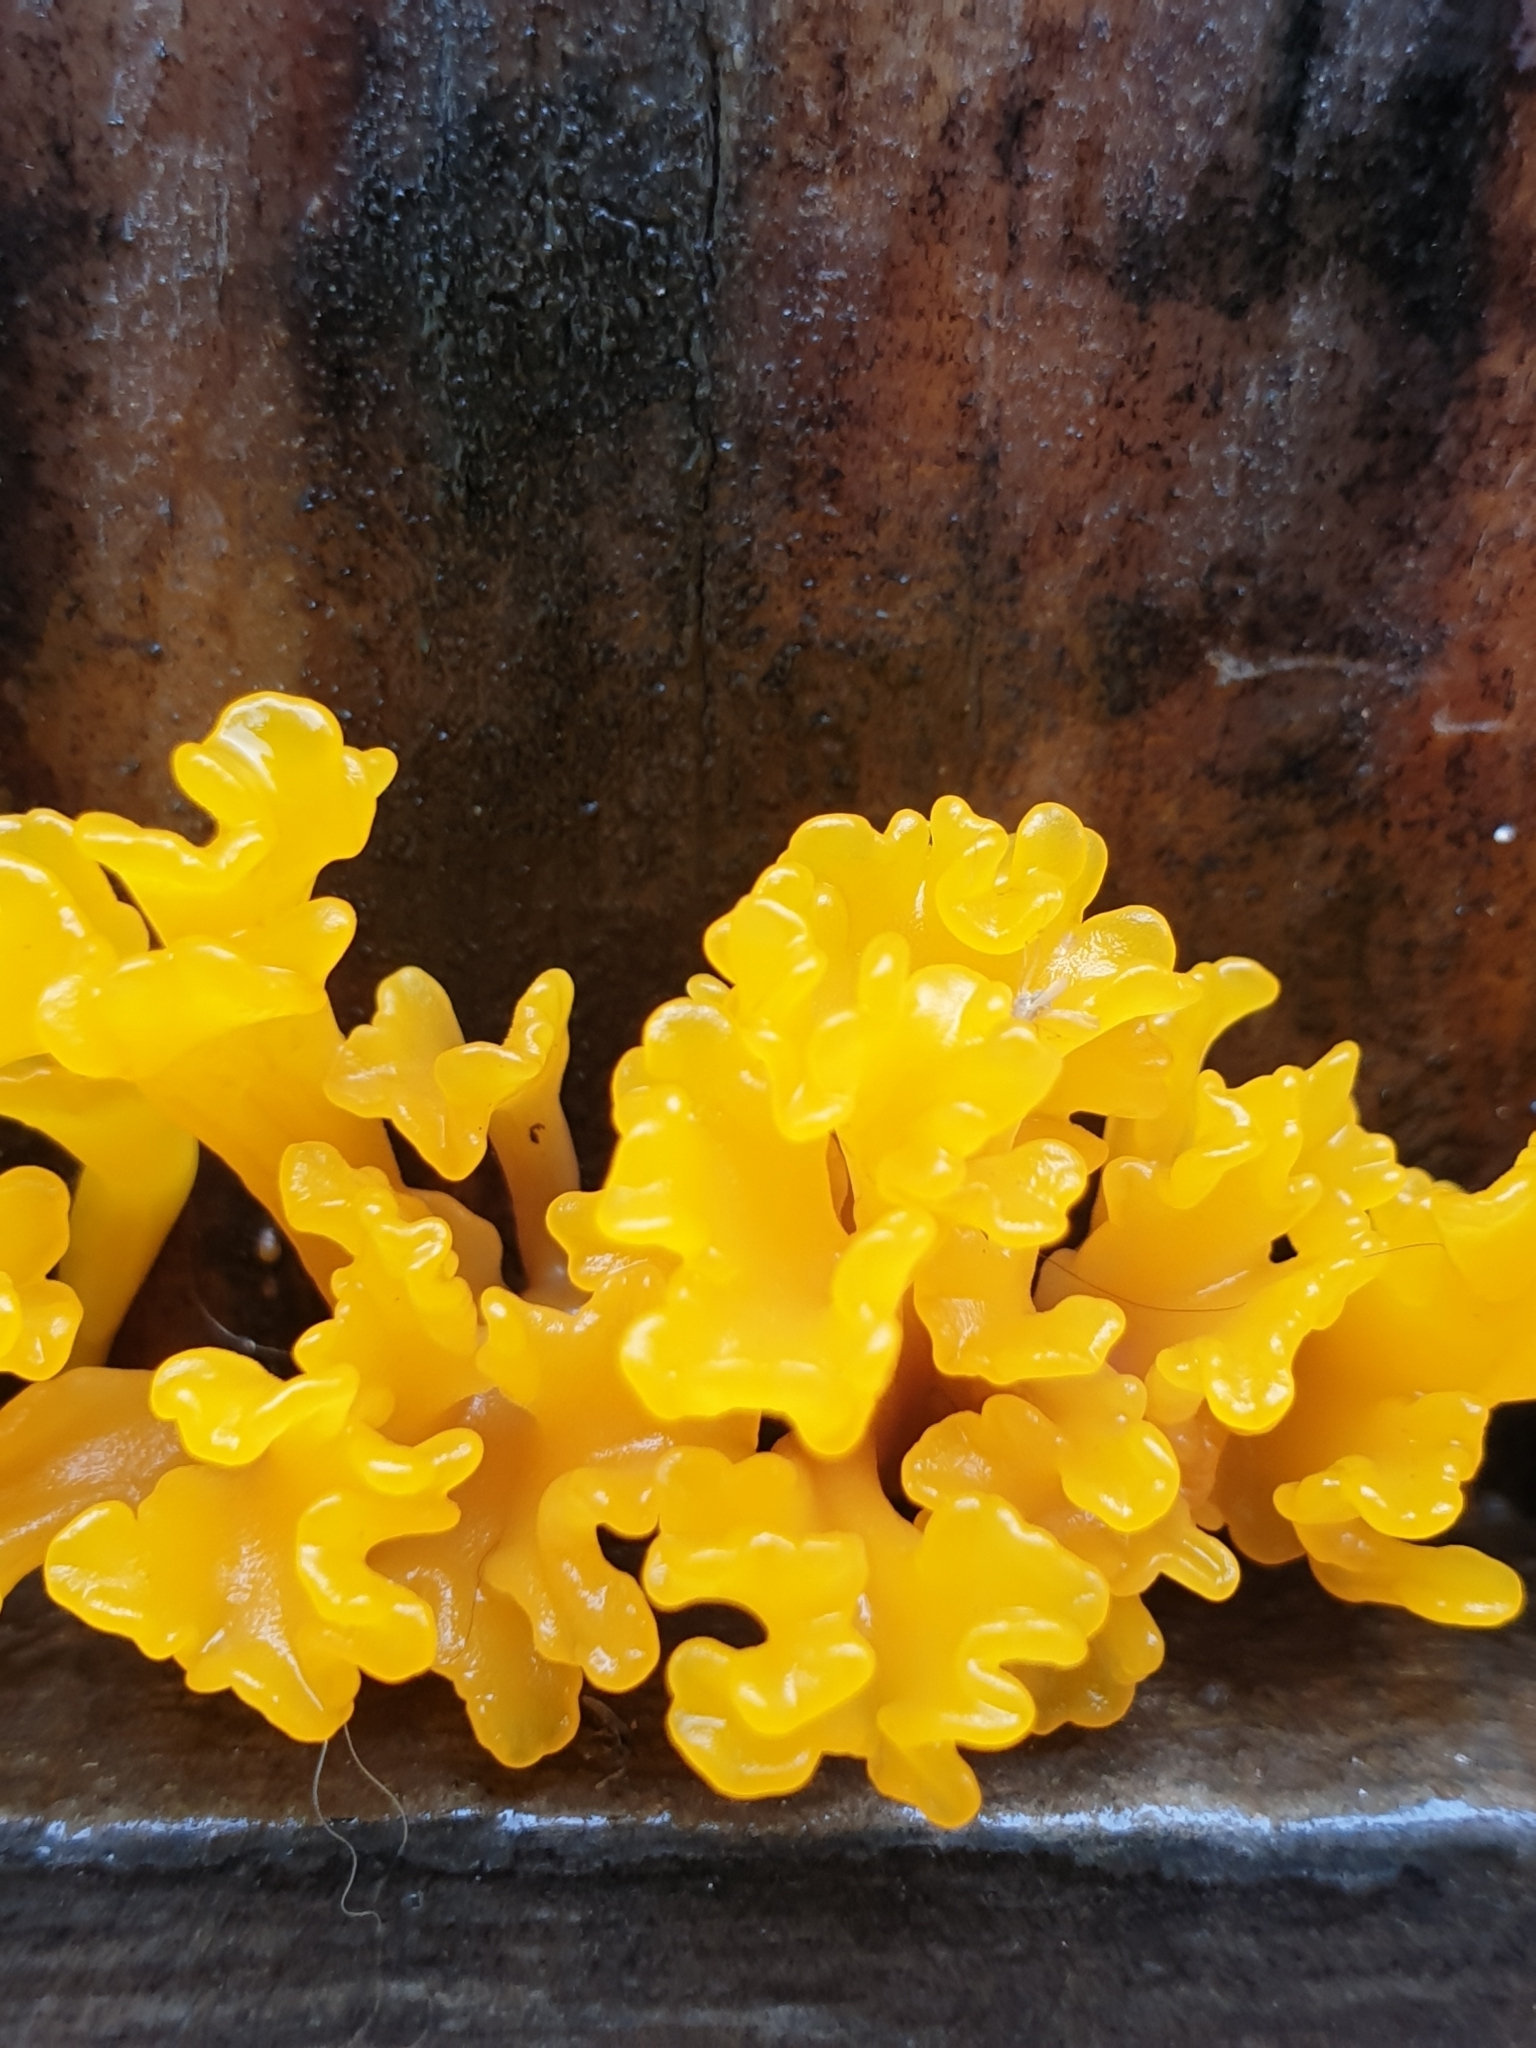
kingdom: Fungi
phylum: Basidiomycota
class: Dacrymycetes
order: Dacrymycetales
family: Dacrymycetaceae
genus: Dacrymyces
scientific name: Dacrymyces spathularius
